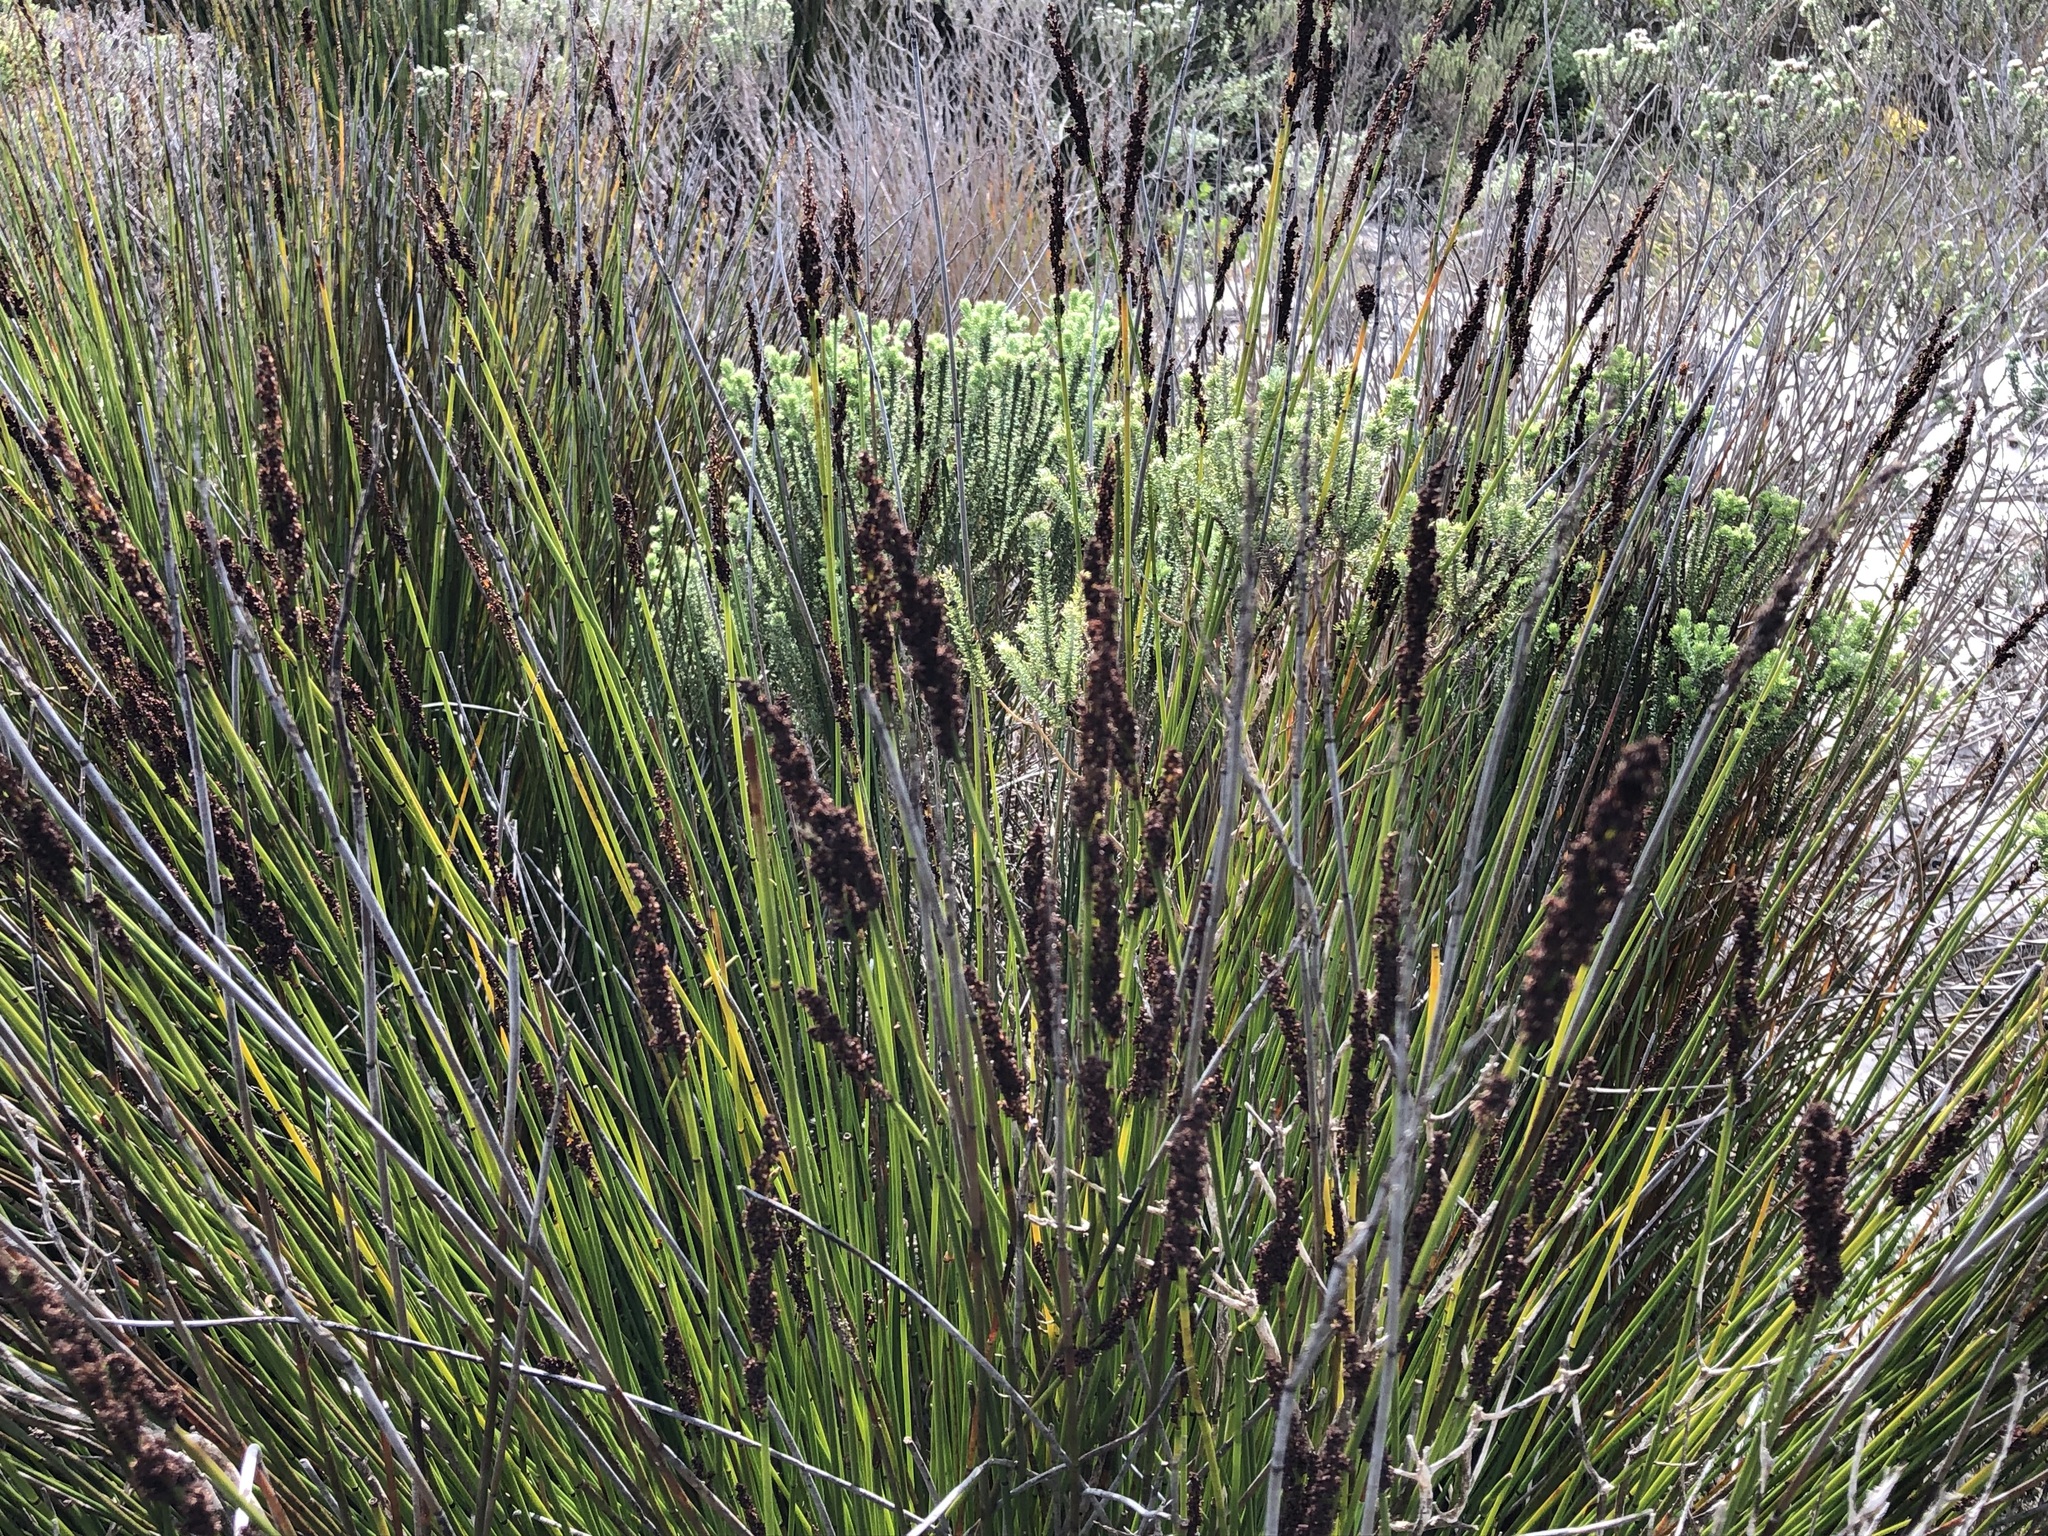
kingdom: Plantae
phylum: Tracheophyta
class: Liliopsida
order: Poales
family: Restionaceae
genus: Elegia
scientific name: Elegia tectorum
